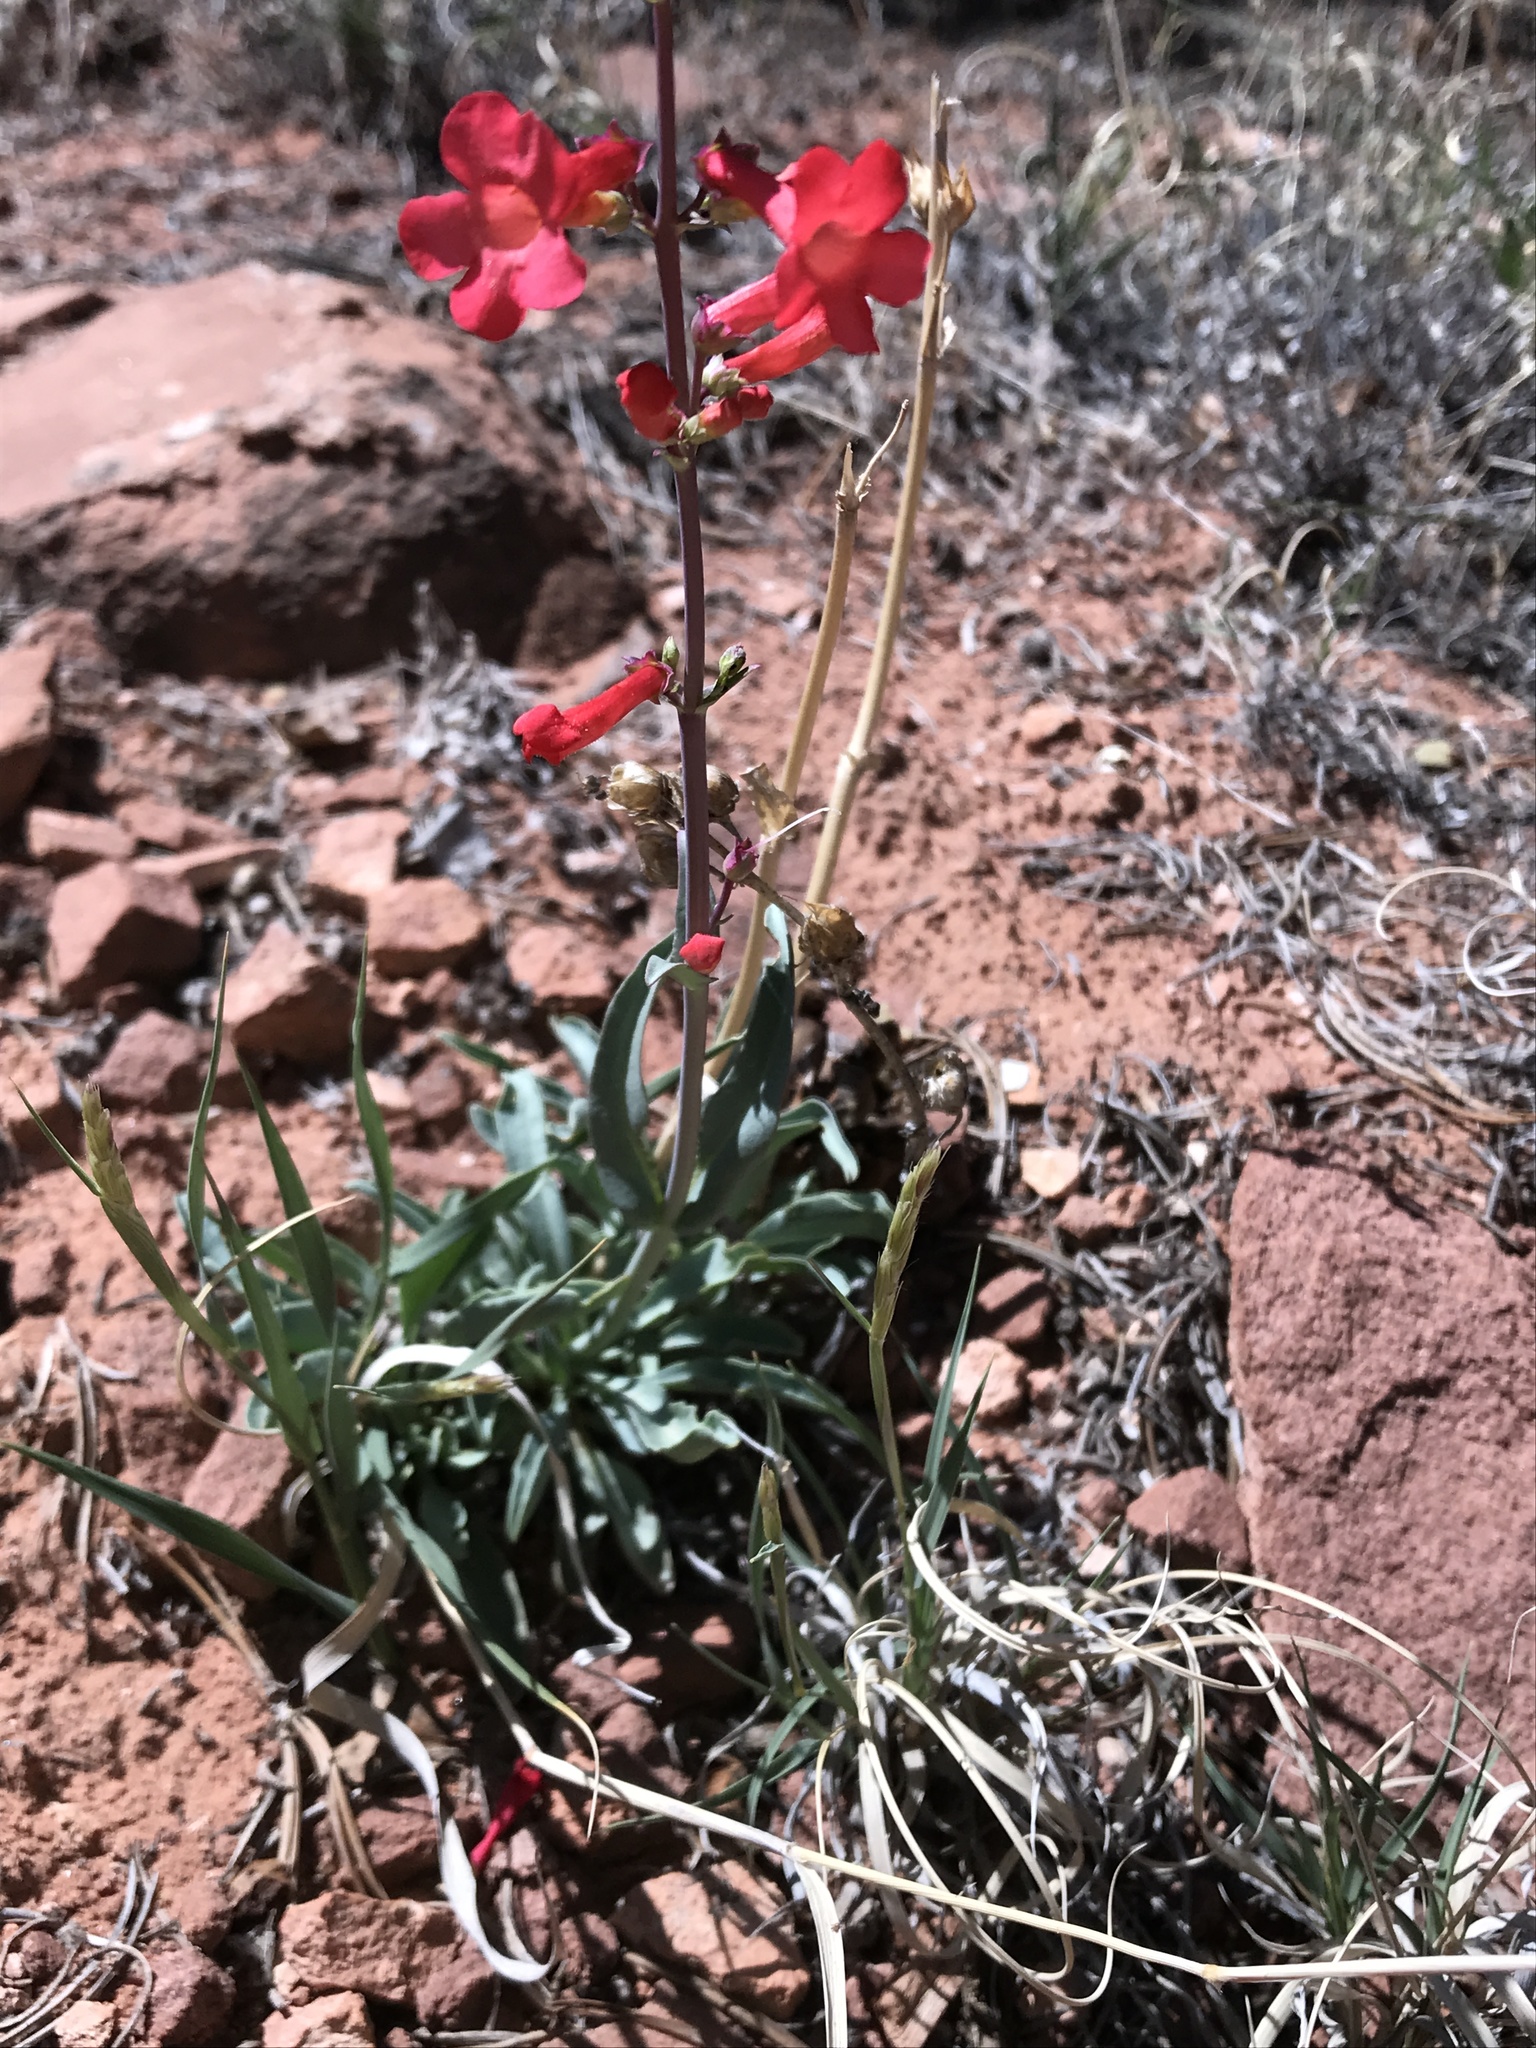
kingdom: Plantae
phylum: Tracheophyta
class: Magnoliopsida
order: Lamiales
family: Plantaginaceae
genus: Penstemon
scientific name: Penstemon utahensis
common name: Utah penstemon
